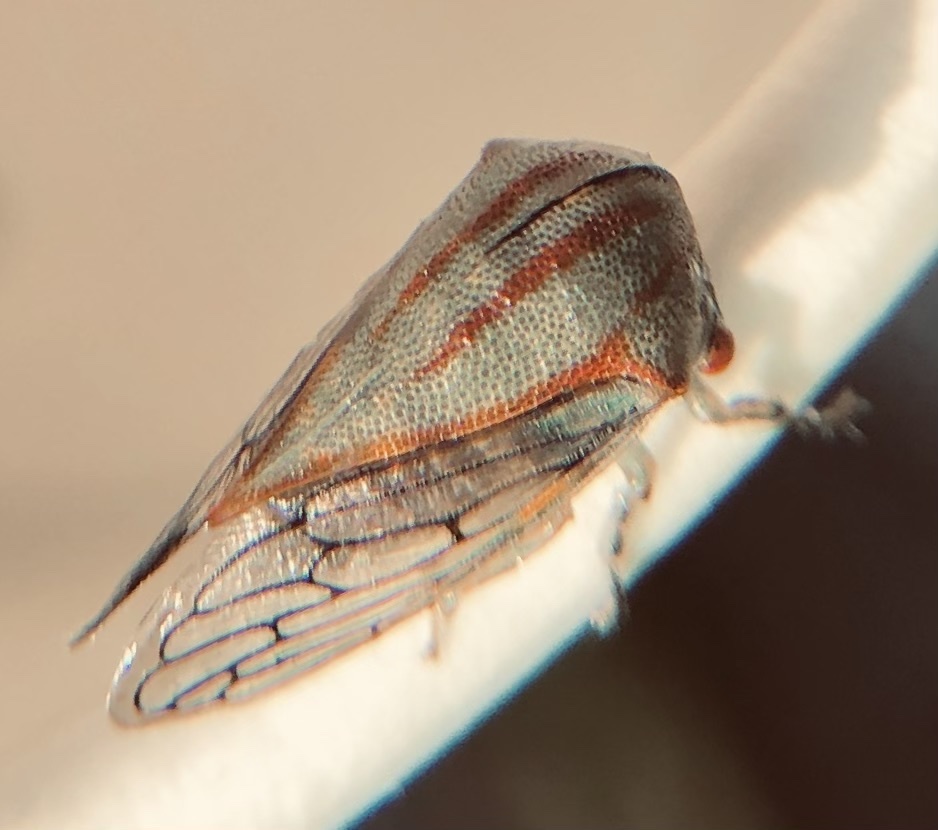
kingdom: Animalia
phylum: Arthropoda
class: Insecta
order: Hemiptera
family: Membracidae
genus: Platycotis
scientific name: Platycotis vittatus
